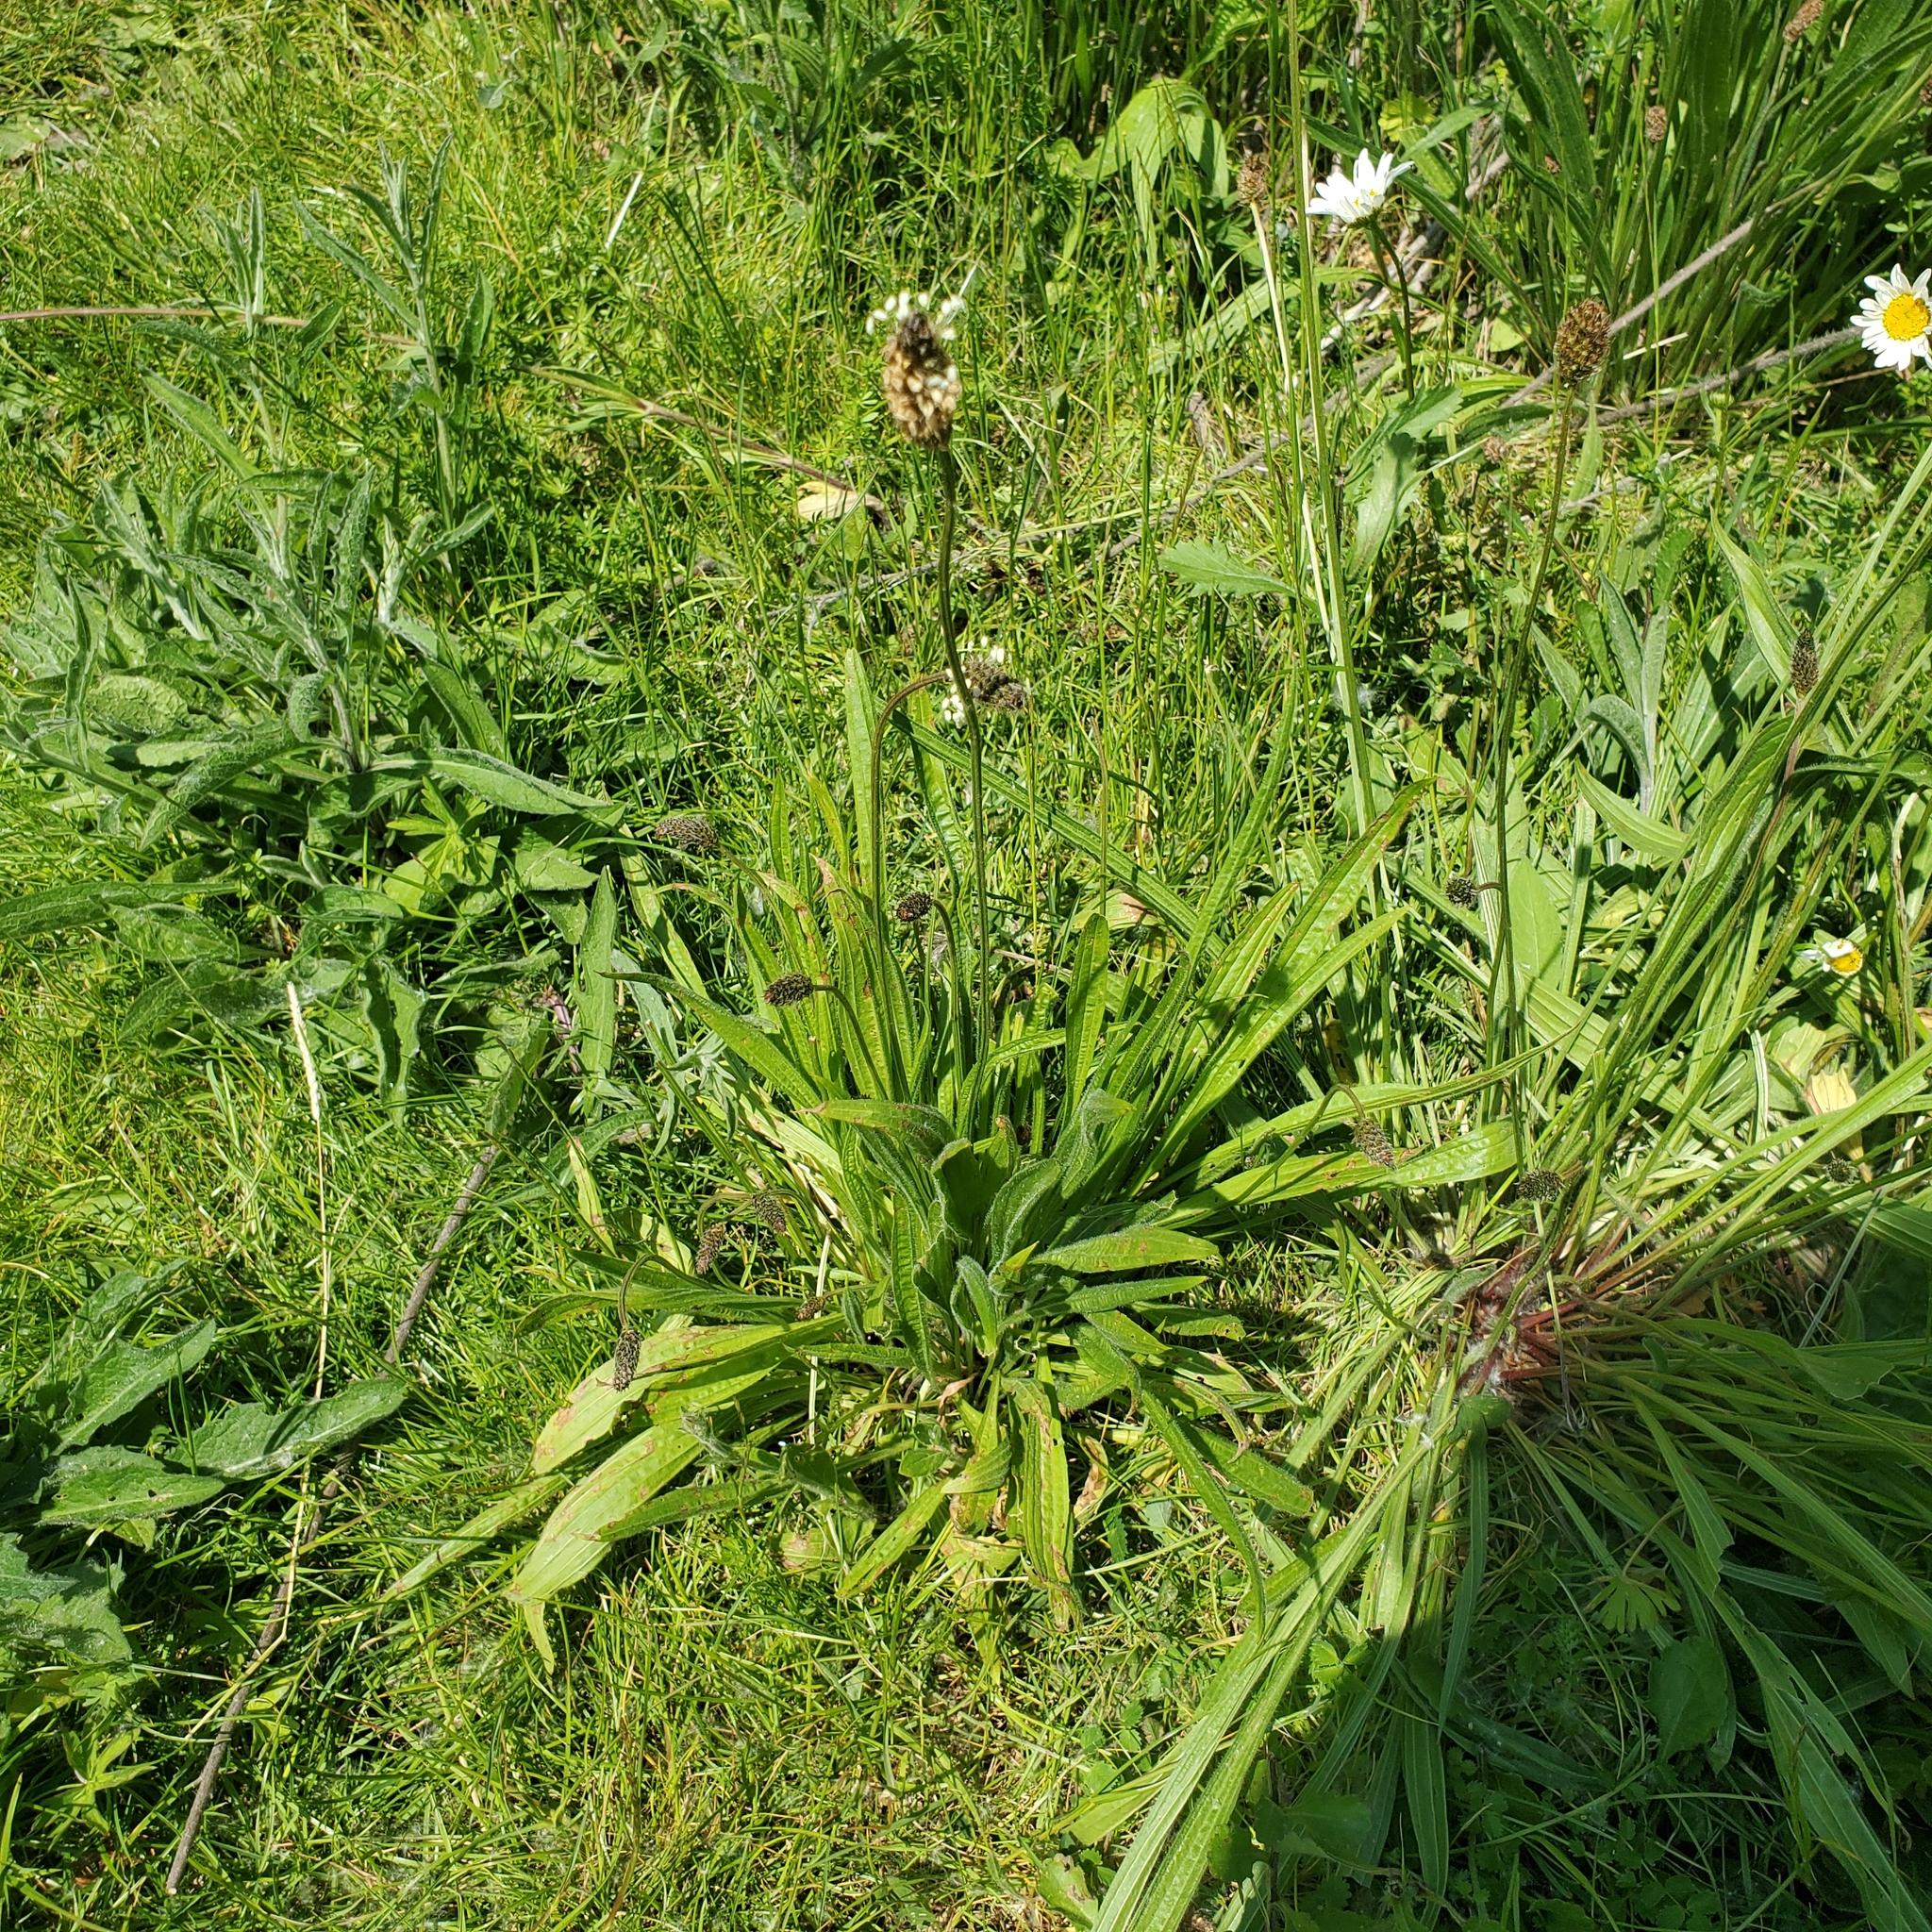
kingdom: Plantae
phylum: Tracheophyta
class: Magnoliopsida
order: Lamiales
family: Plantaginaceae
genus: Plantago
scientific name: Plantago lanceolata
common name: Ribwort plantain
